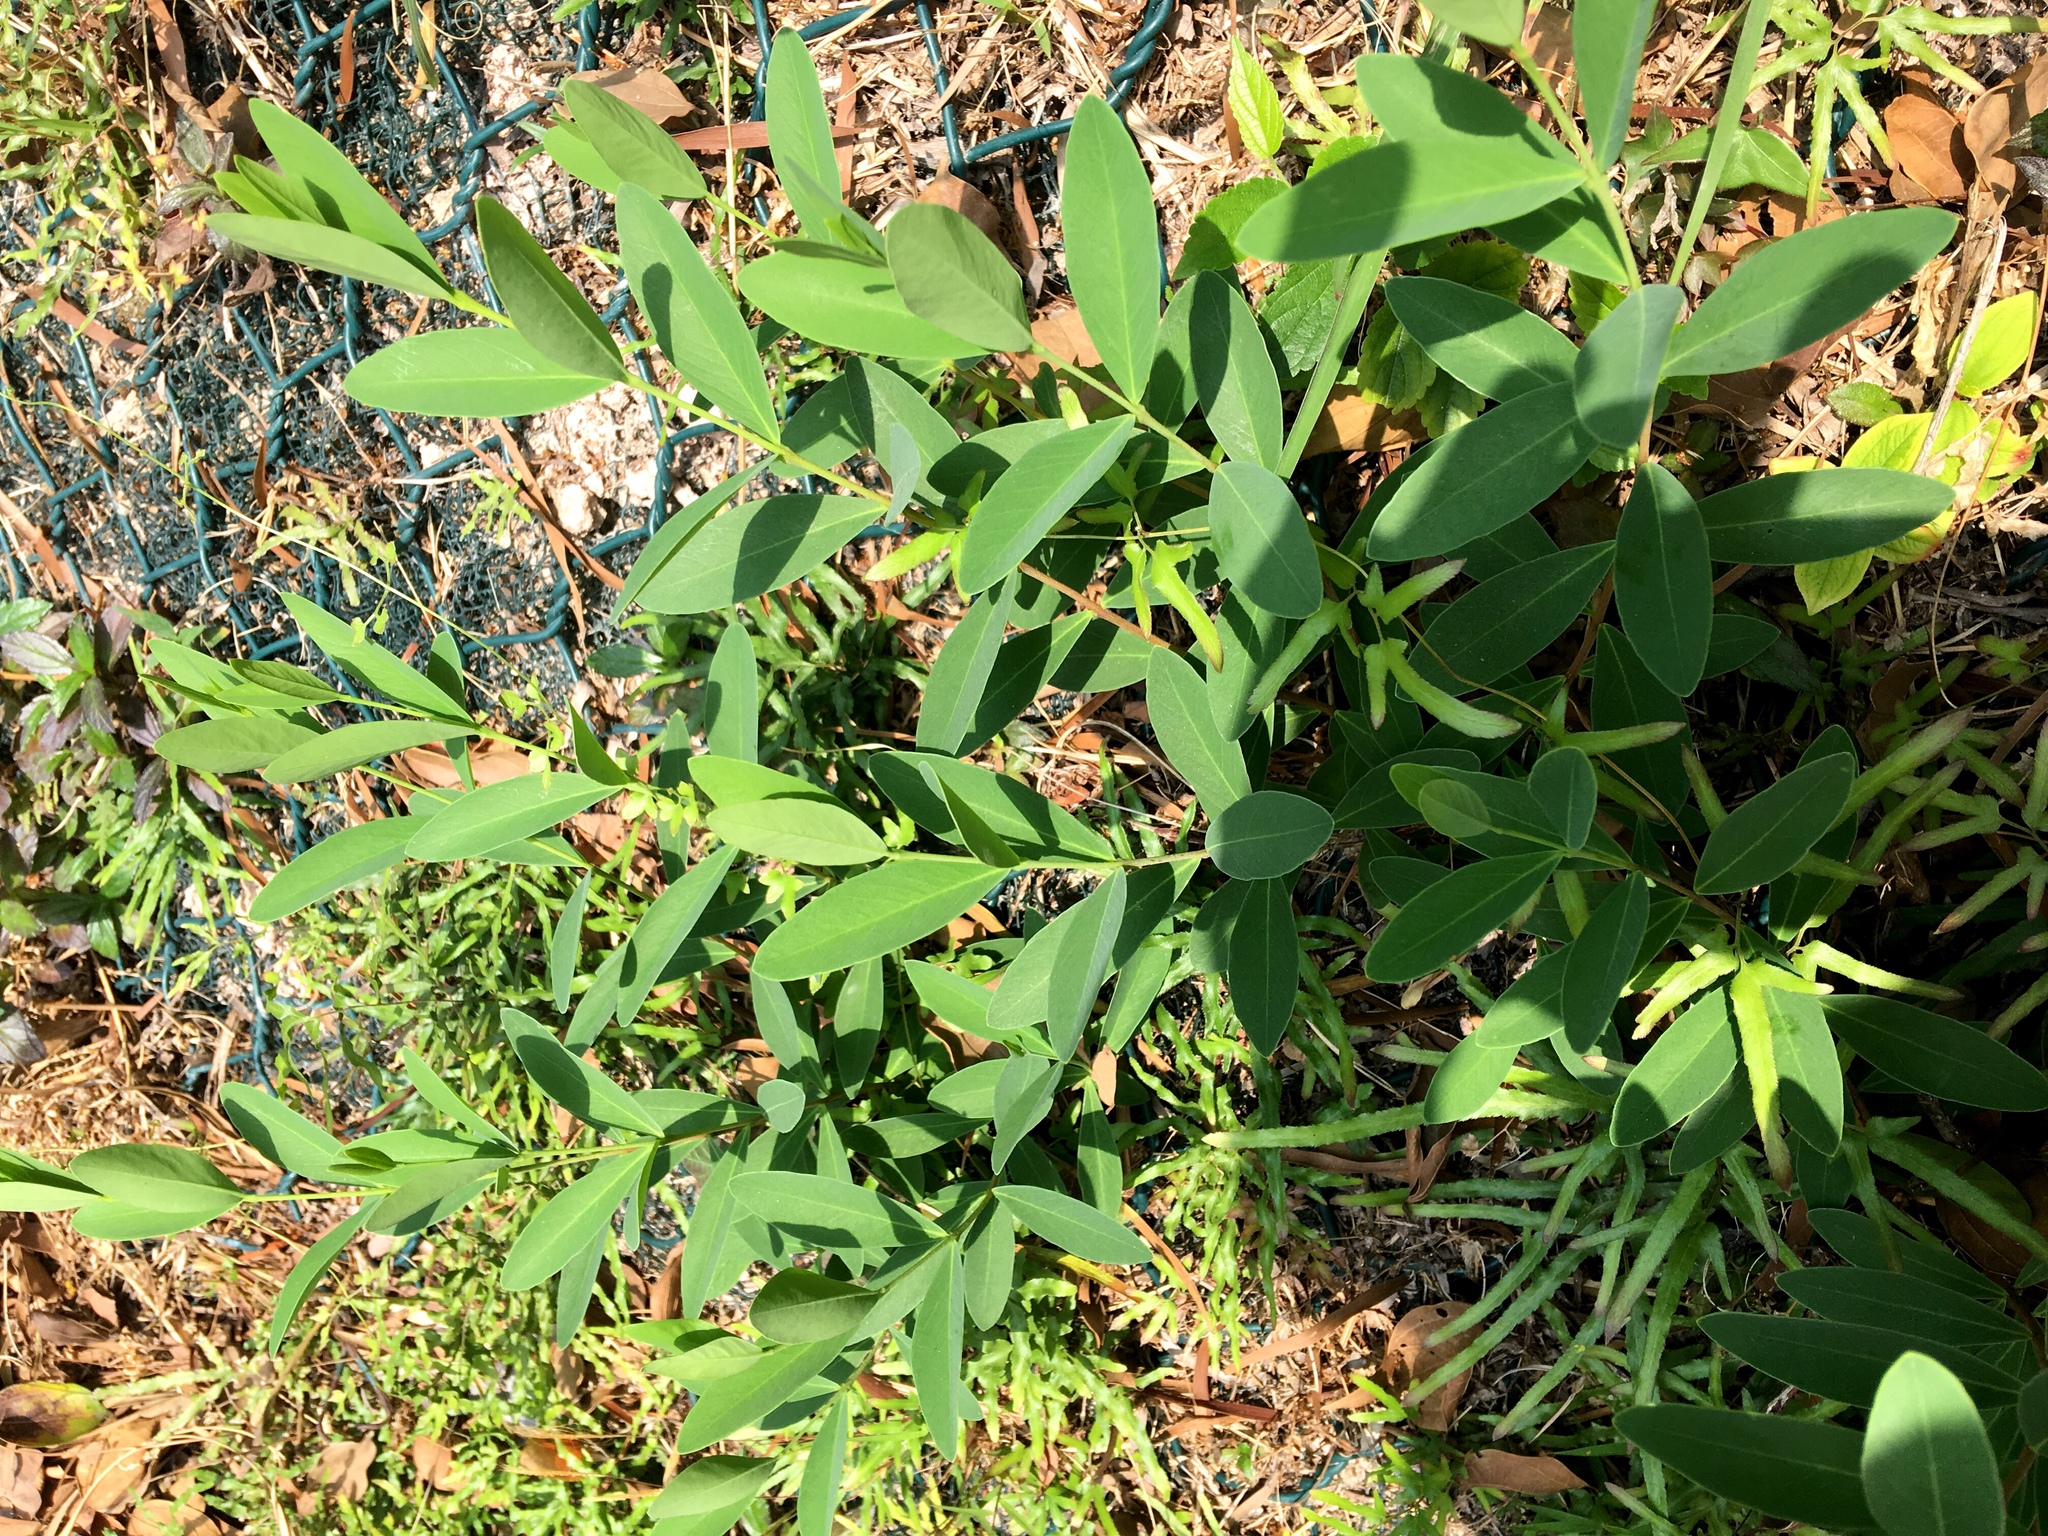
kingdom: Plantae
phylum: Tracheophyta
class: Magnoliopsida
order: Malvales
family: Thymelaeaceae
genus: Wikstroemia
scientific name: Wikstroemia indica
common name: Tiebush
